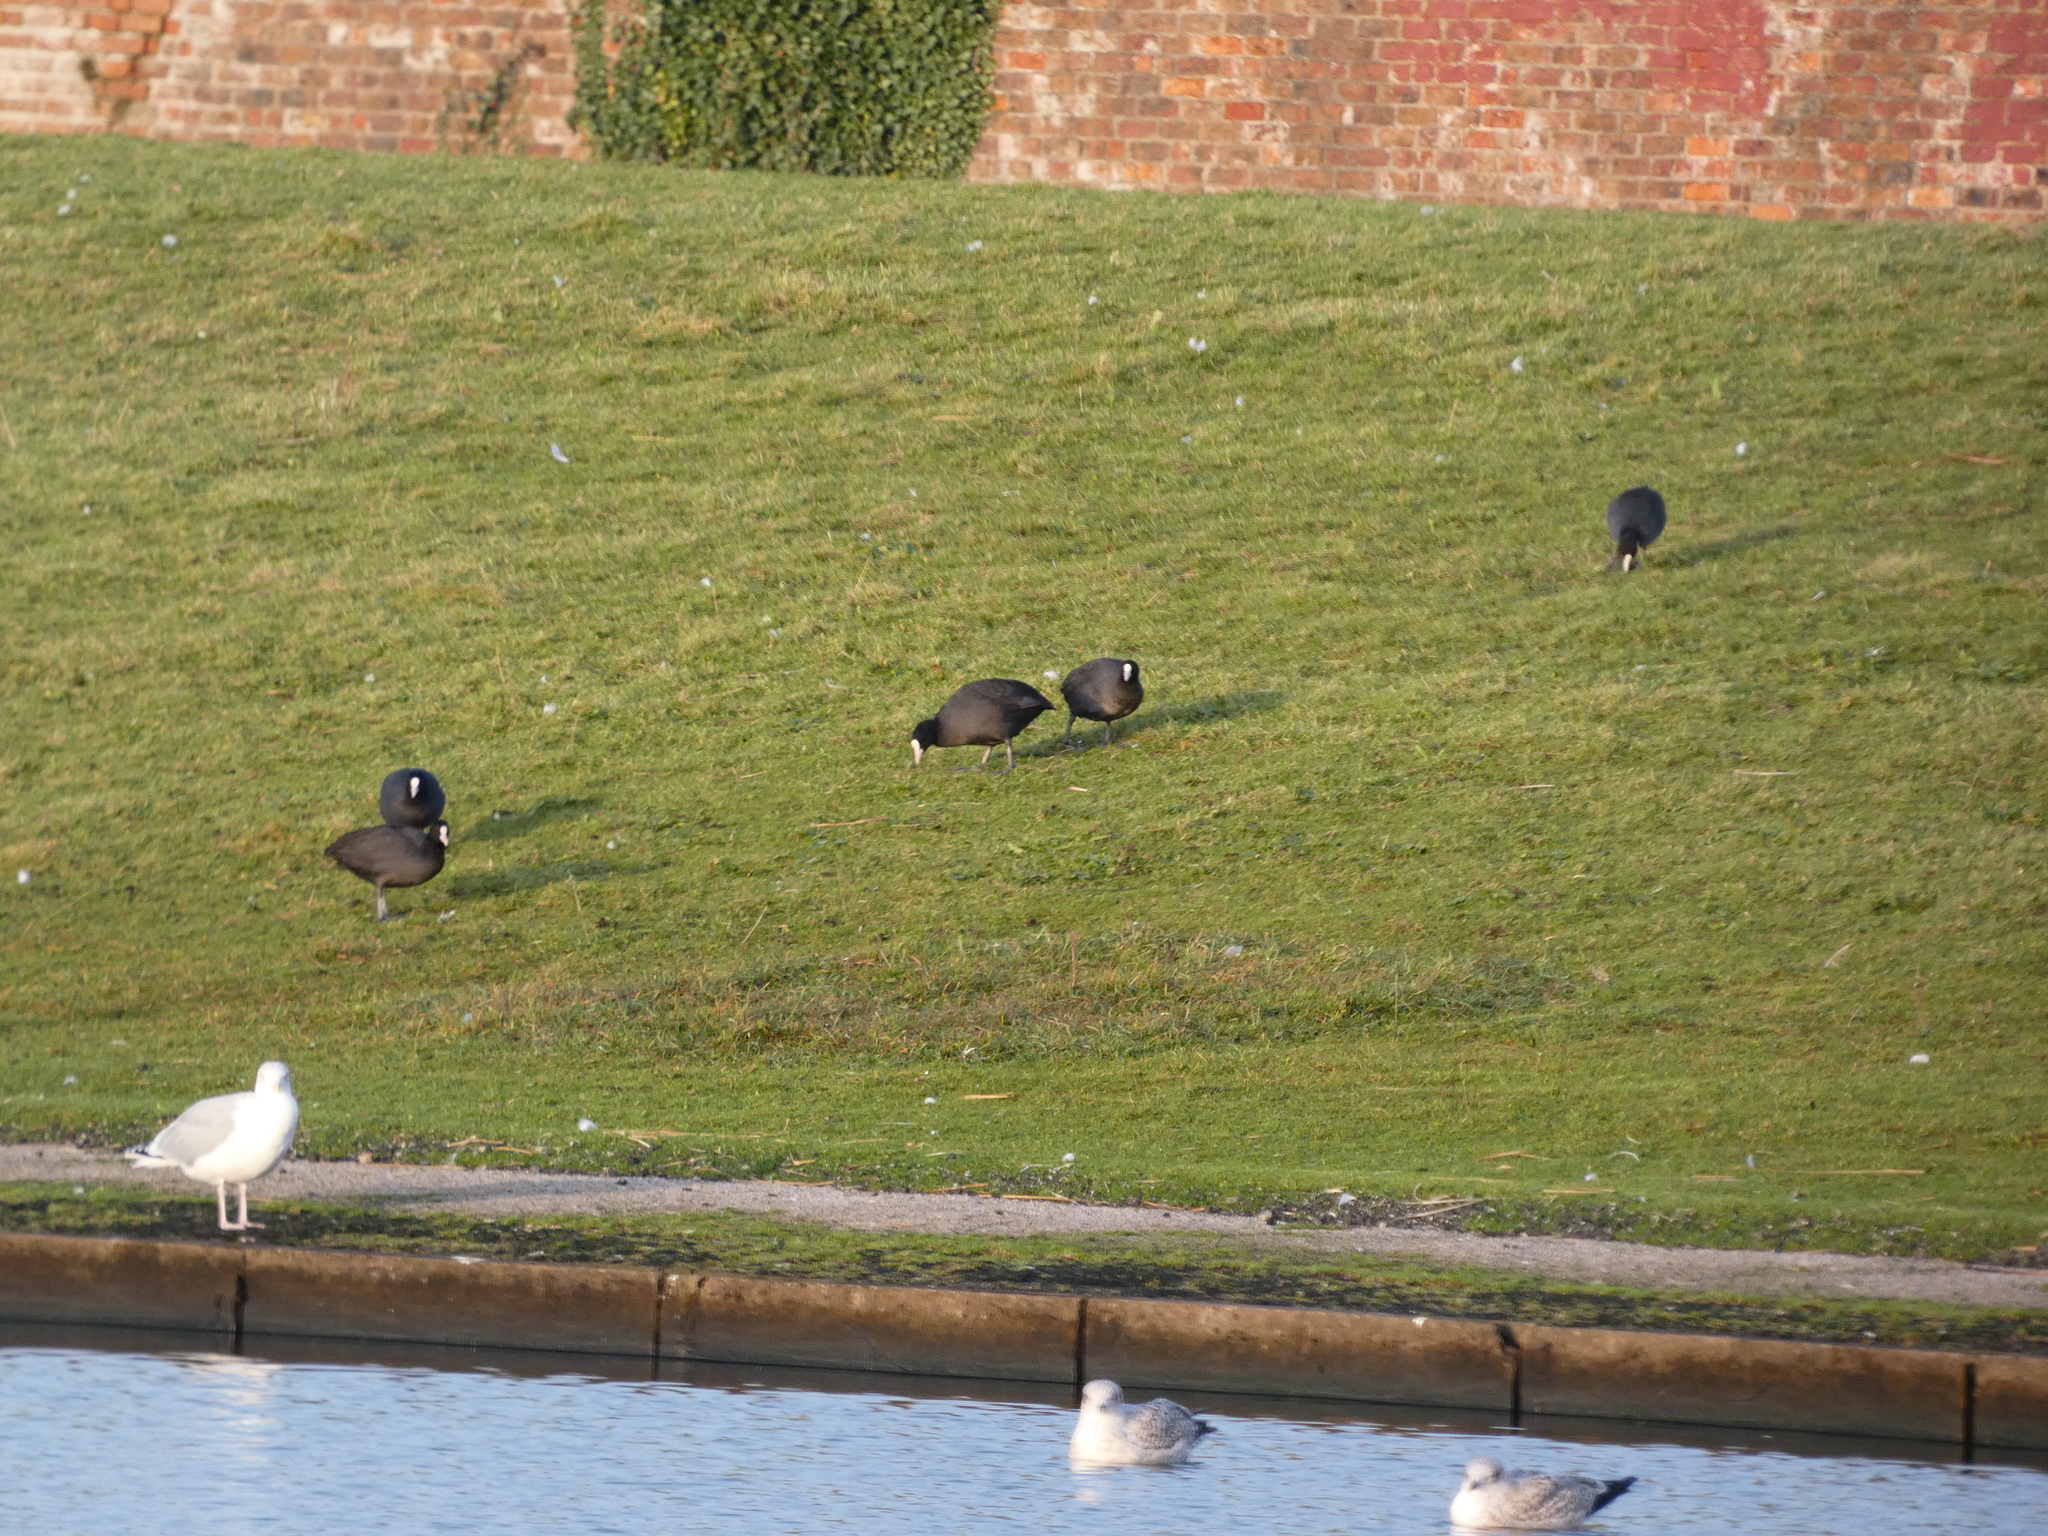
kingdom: Animalia
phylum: Chordata
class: Aves
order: Gruiformes
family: Rallidae
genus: Fulica
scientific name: Fulica atra
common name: Eurasian coot
